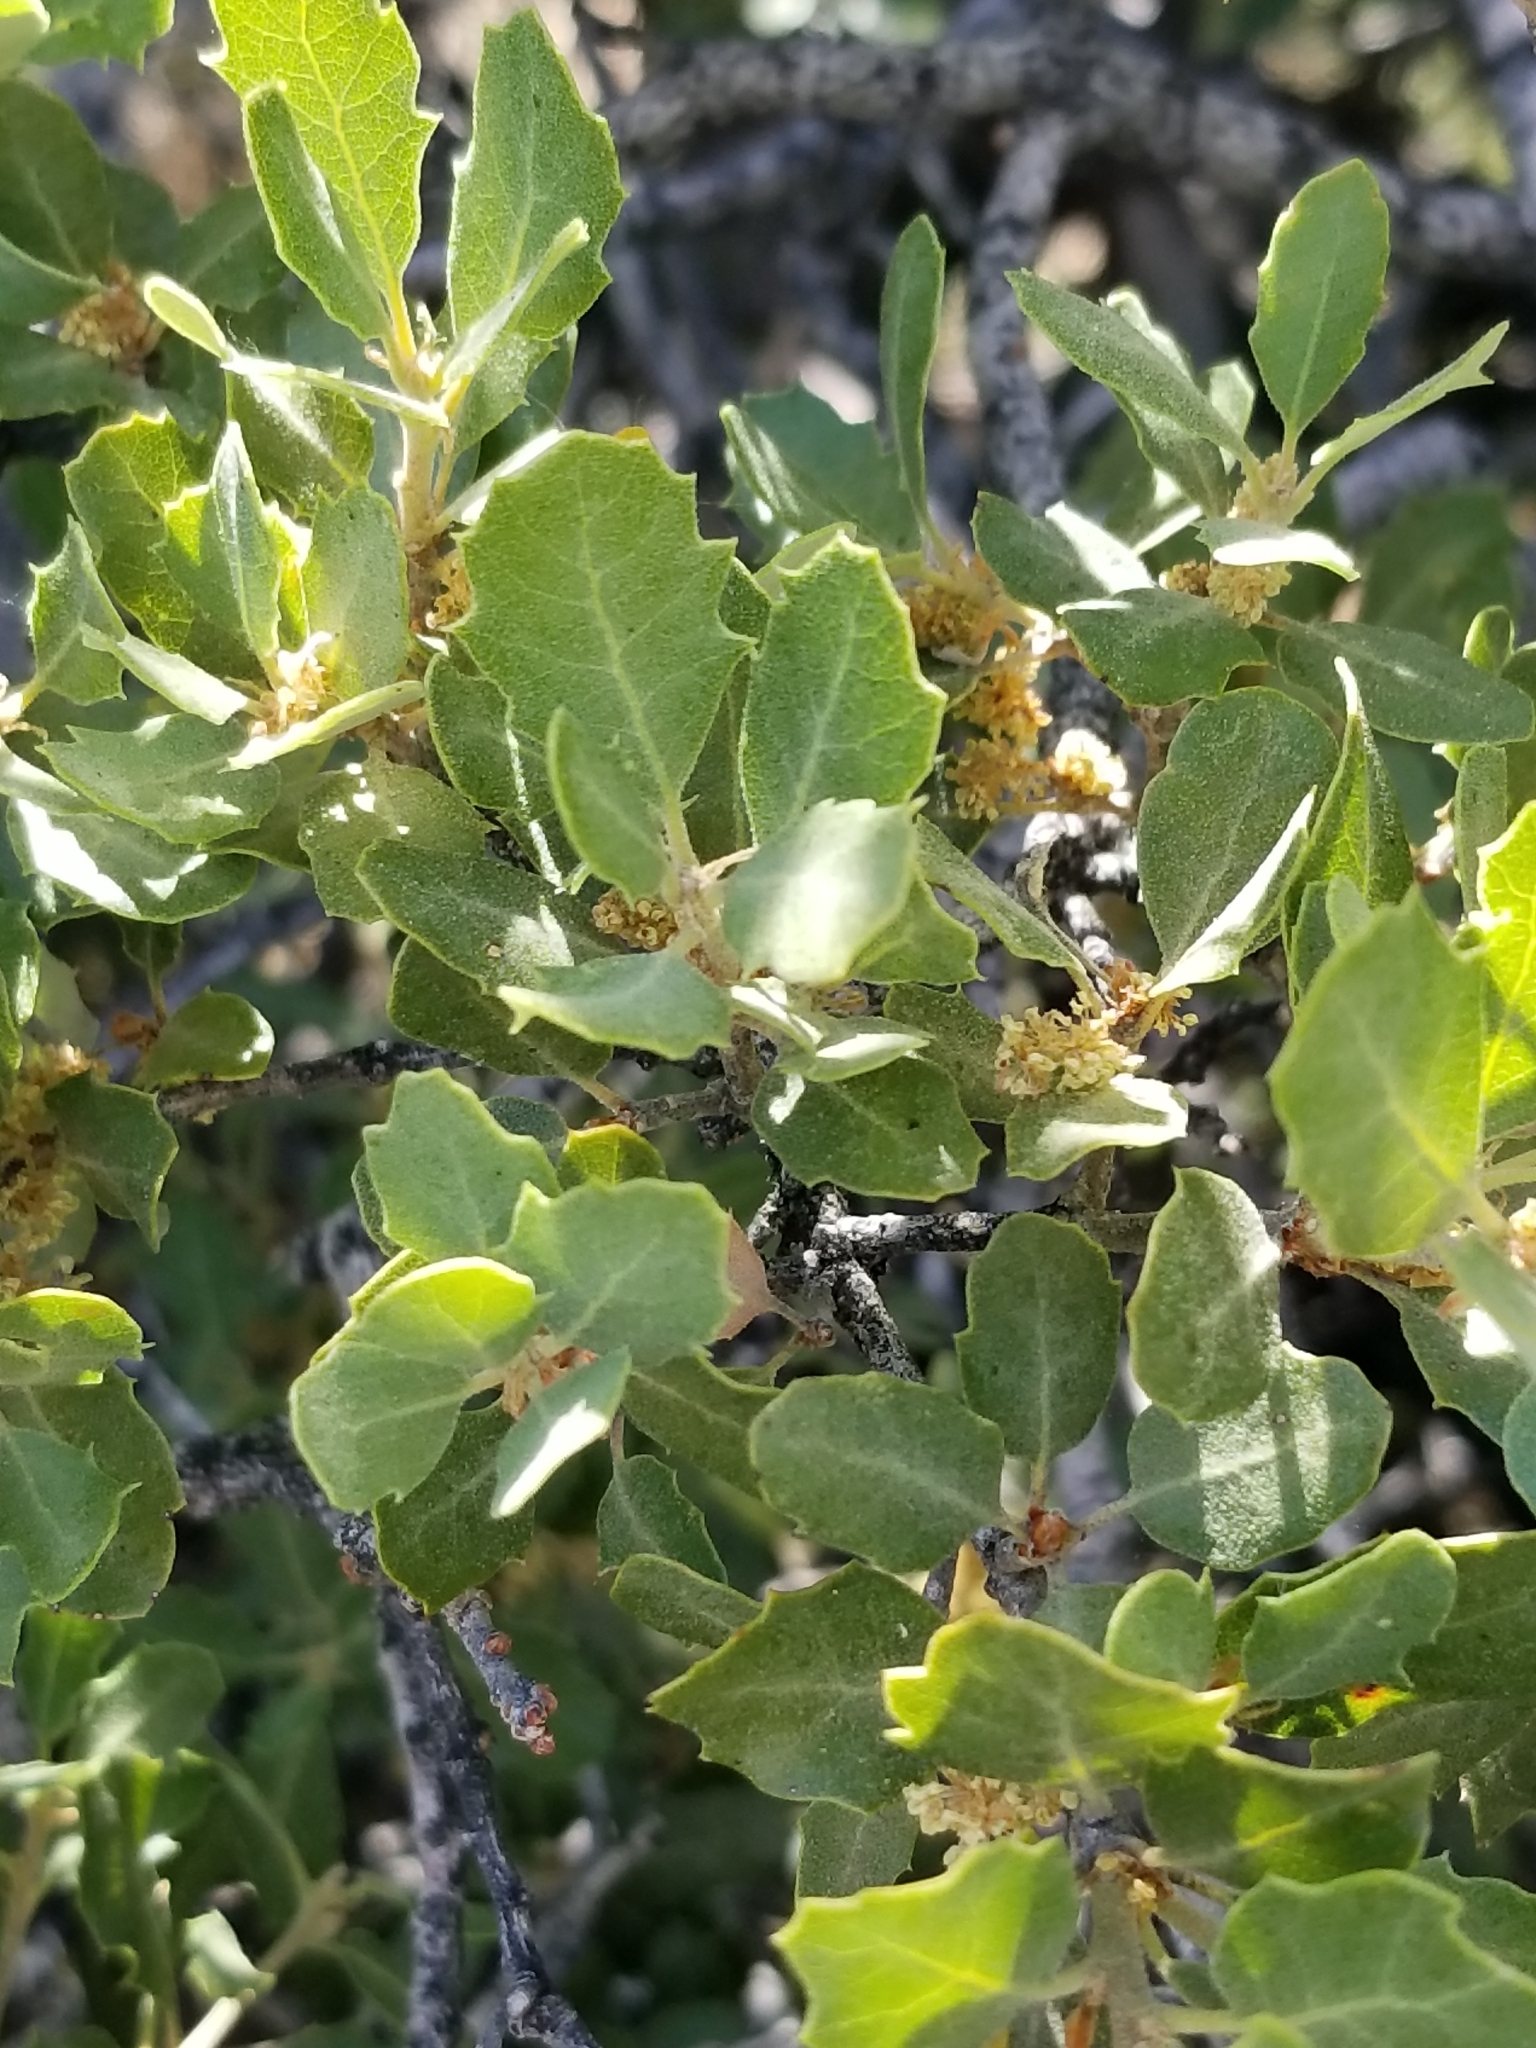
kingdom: Plantae
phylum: Tracheophyta
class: Magnoliopsida
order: Fagales
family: Fagaceae
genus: Quercus
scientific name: Quercus cornelius-mulleri
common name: Muller oak
